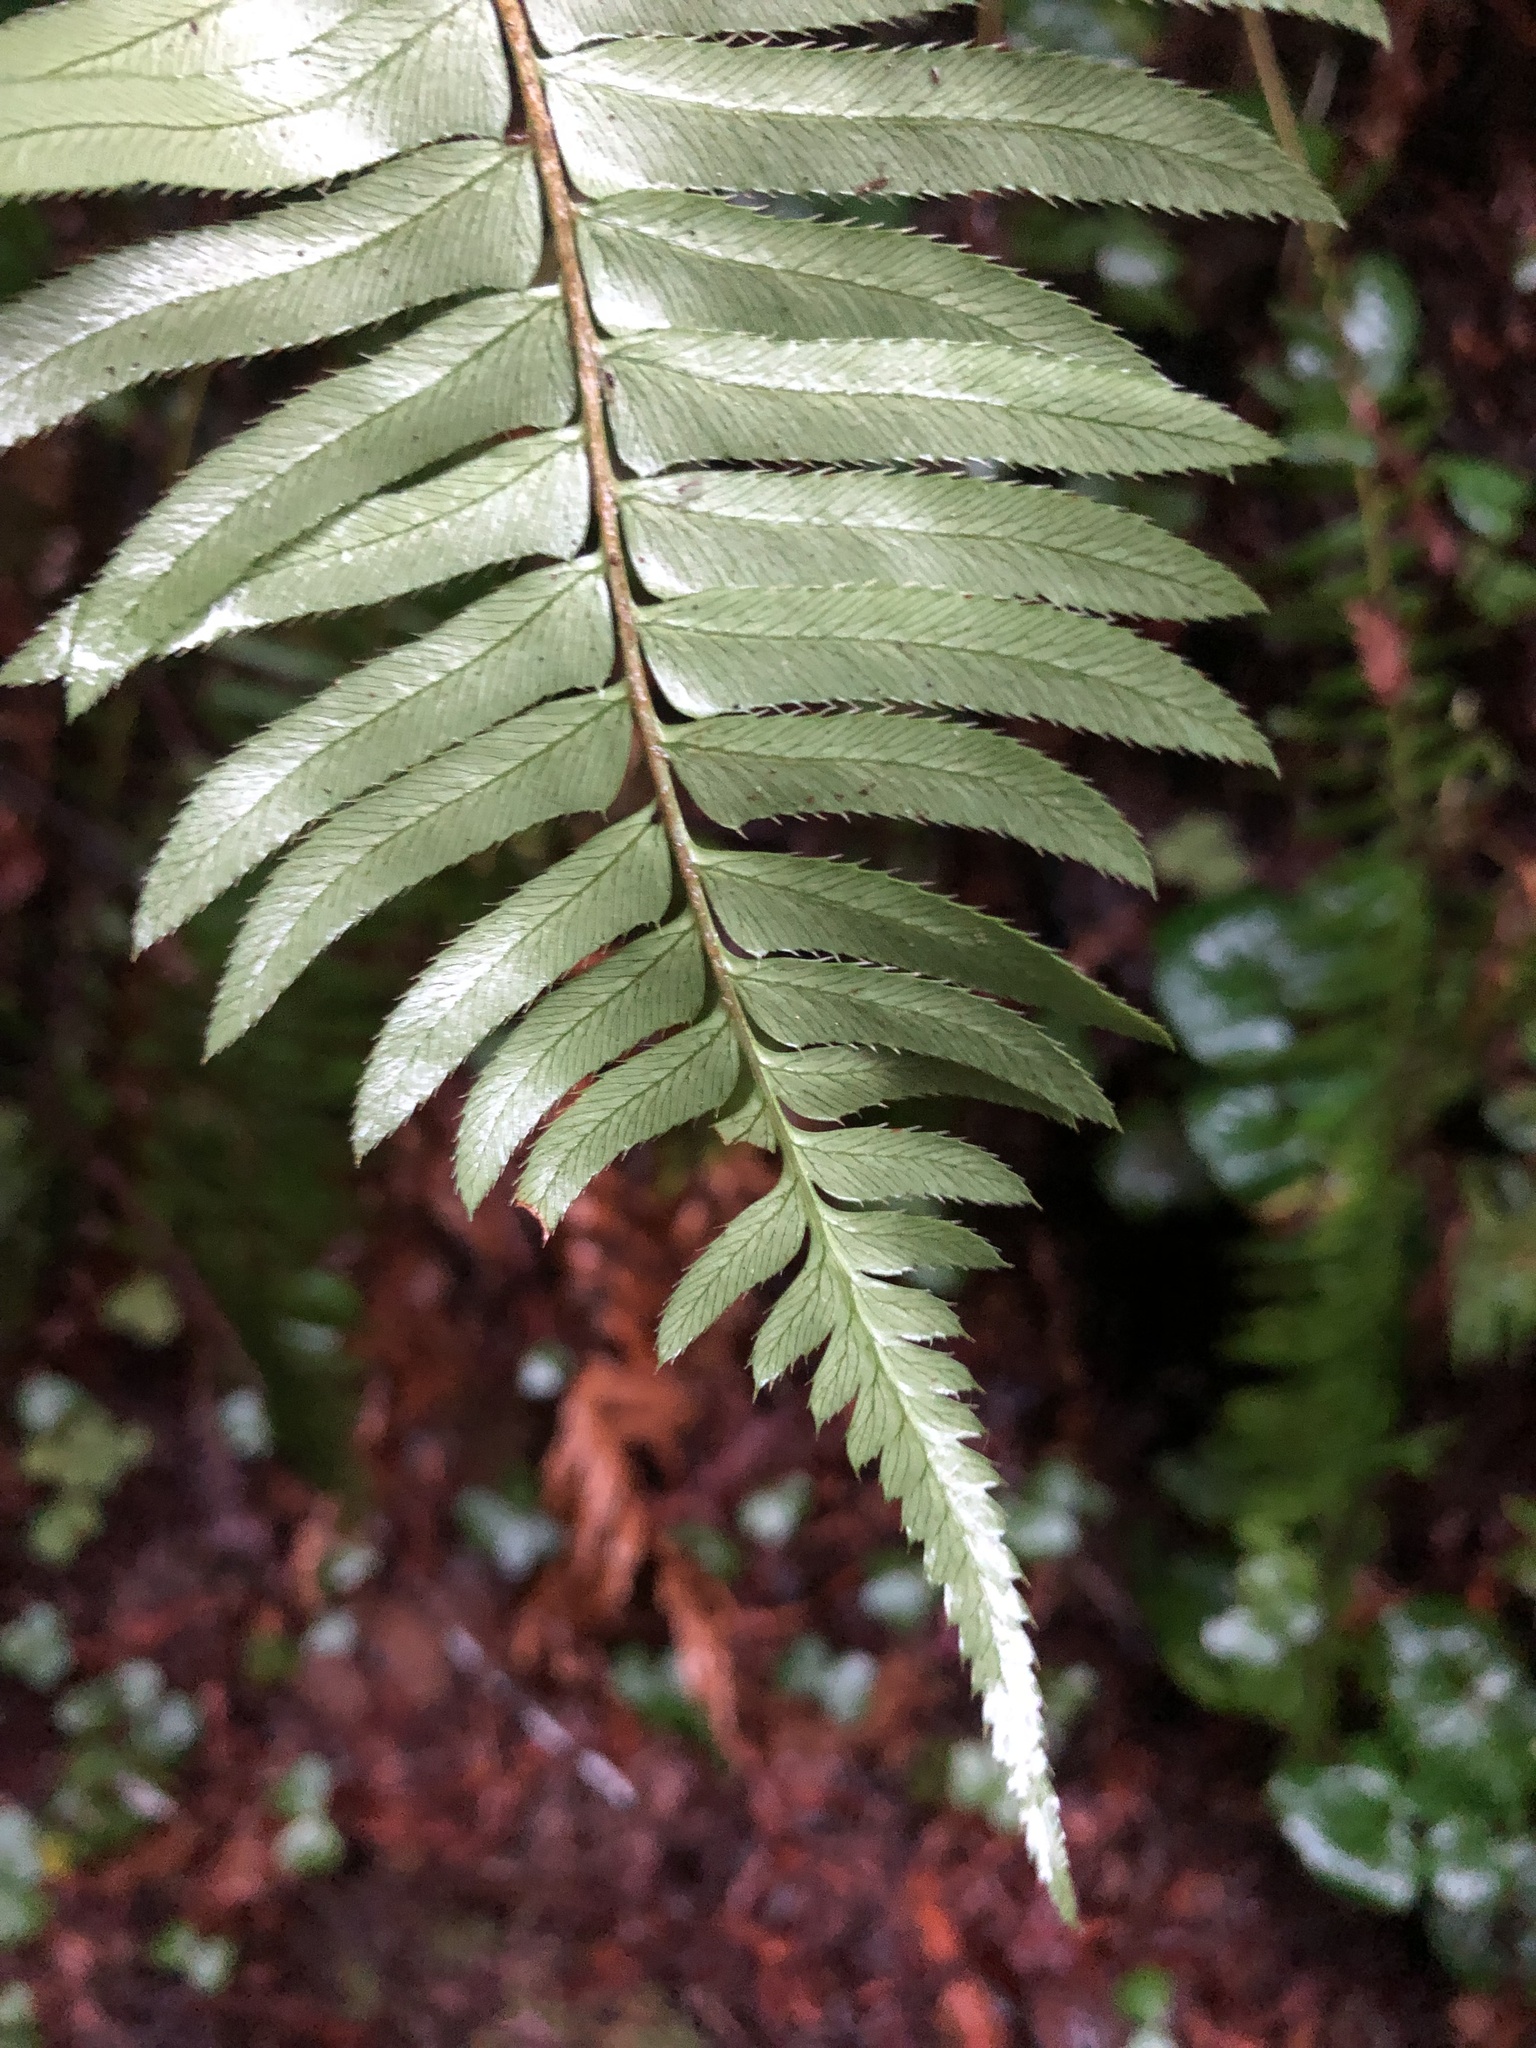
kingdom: Plantae
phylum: Tracheophyta
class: Polypodiopsida
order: Polypodiales
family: Dryopteridaceae
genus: Polystichum
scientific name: Polystichum munitum
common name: Western sword-fern
